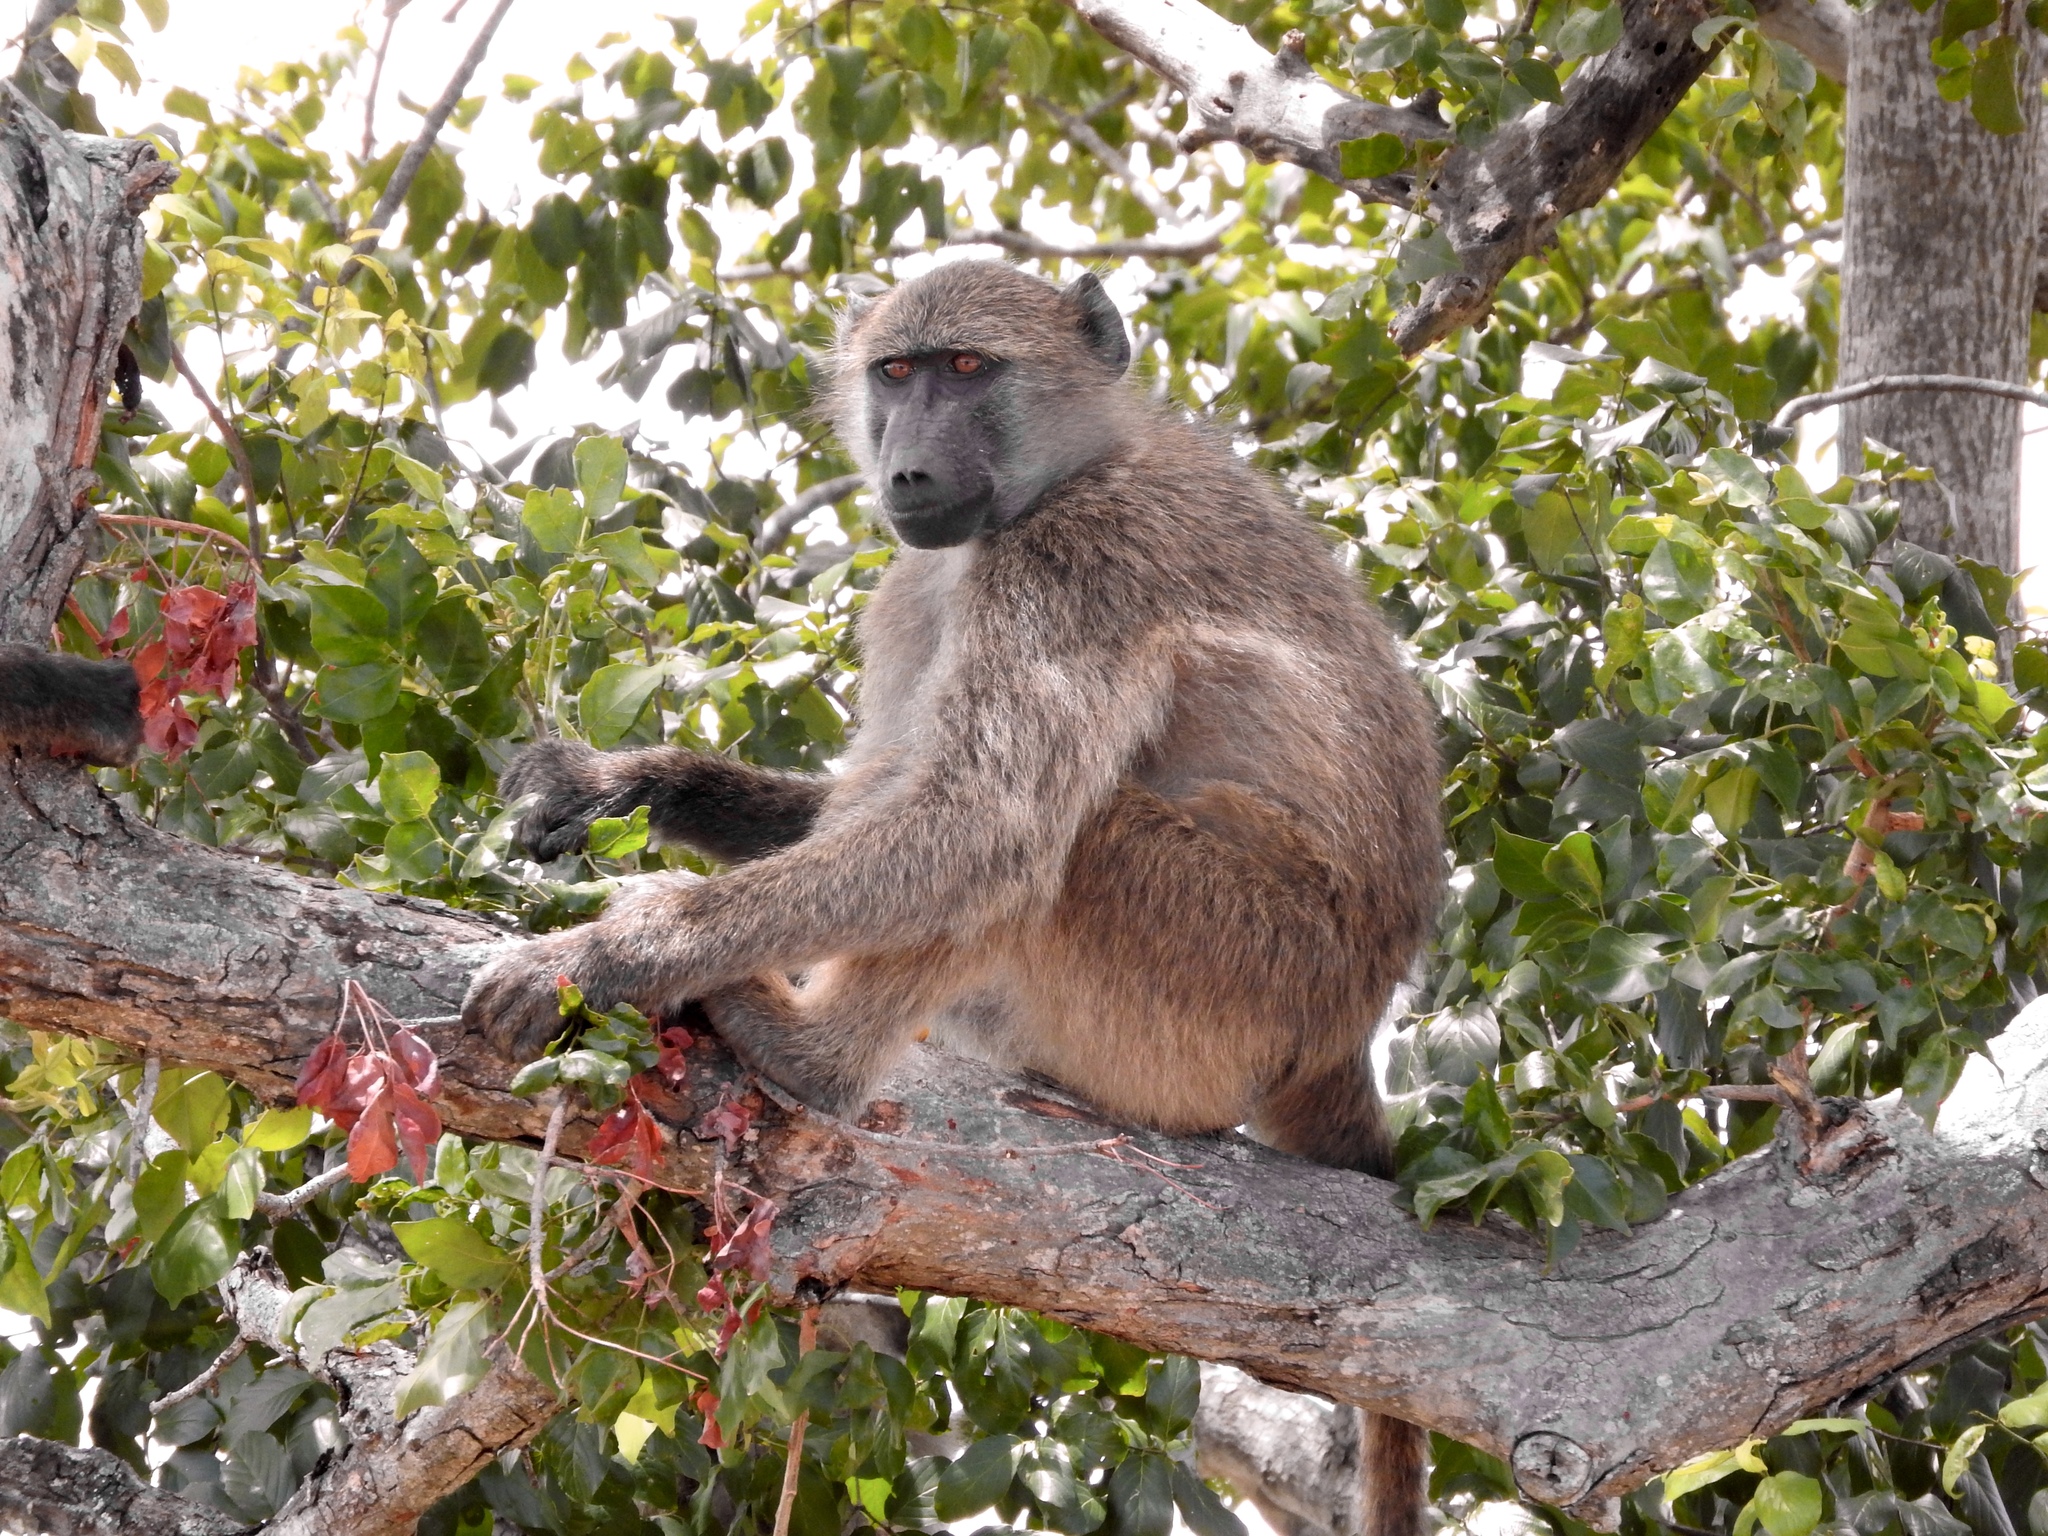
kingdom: Animalia
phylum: Chordata
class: Mammalia
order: Primates
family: Cercopithecidae
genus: Papio
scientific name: Papio ursinus
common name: Chacma baboon
